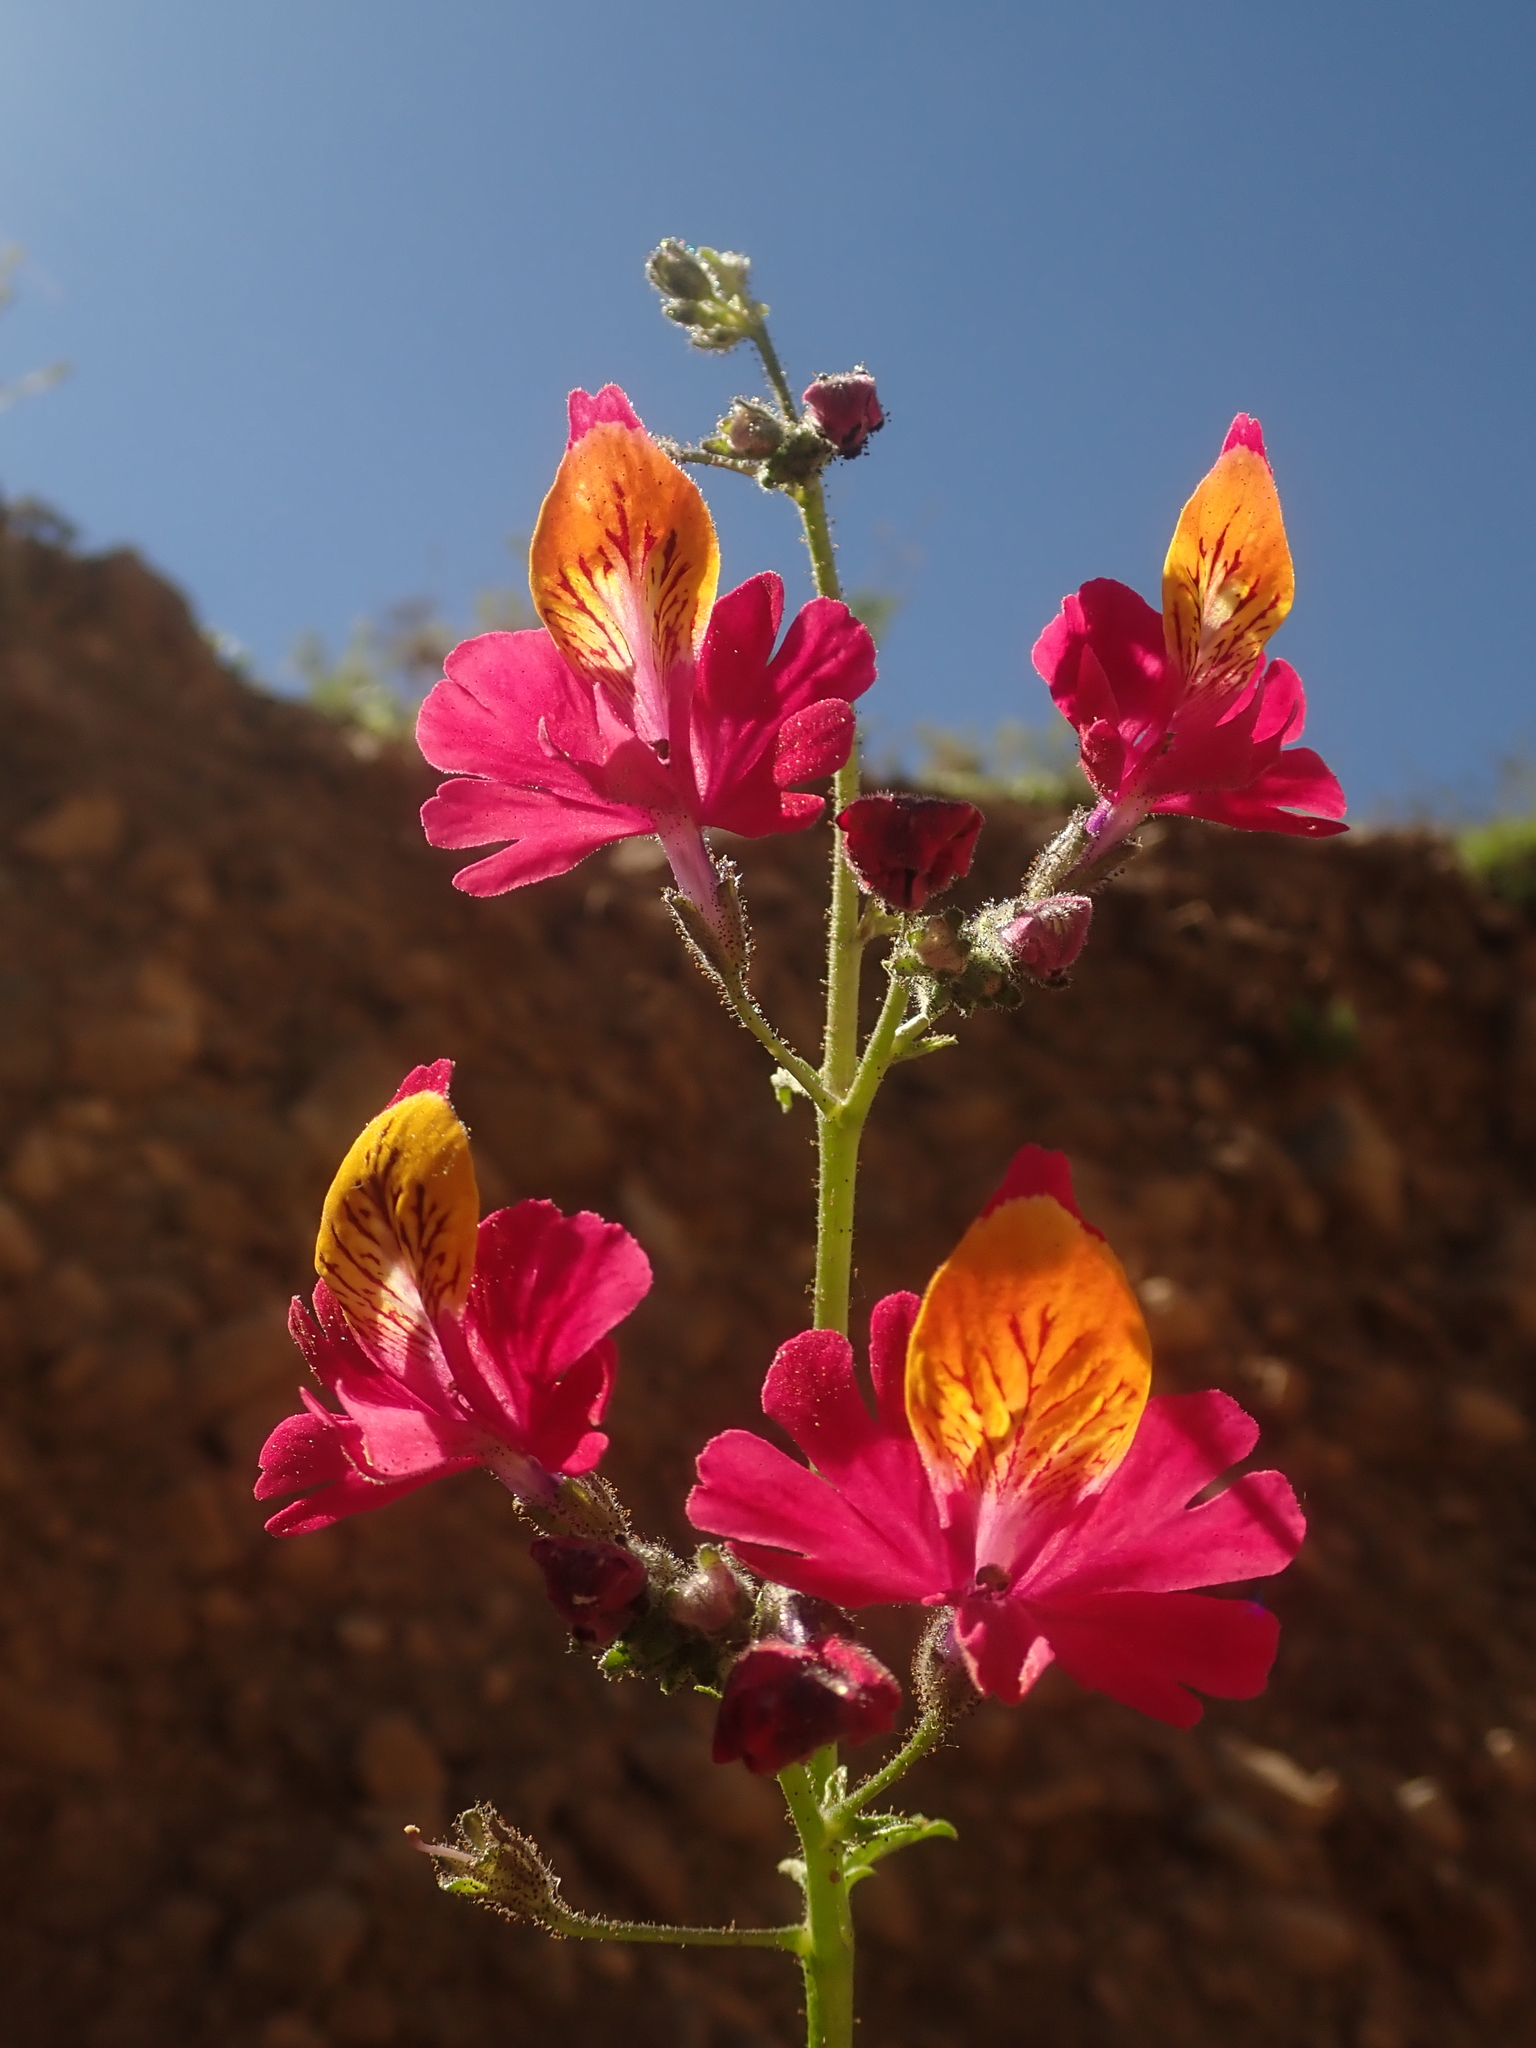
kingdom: Plantae
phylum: Tracheophyta
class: Magnoliopsida
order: Solanales
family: Solanaceae
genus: Schizanthus
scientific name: Schizanthus grahamii
